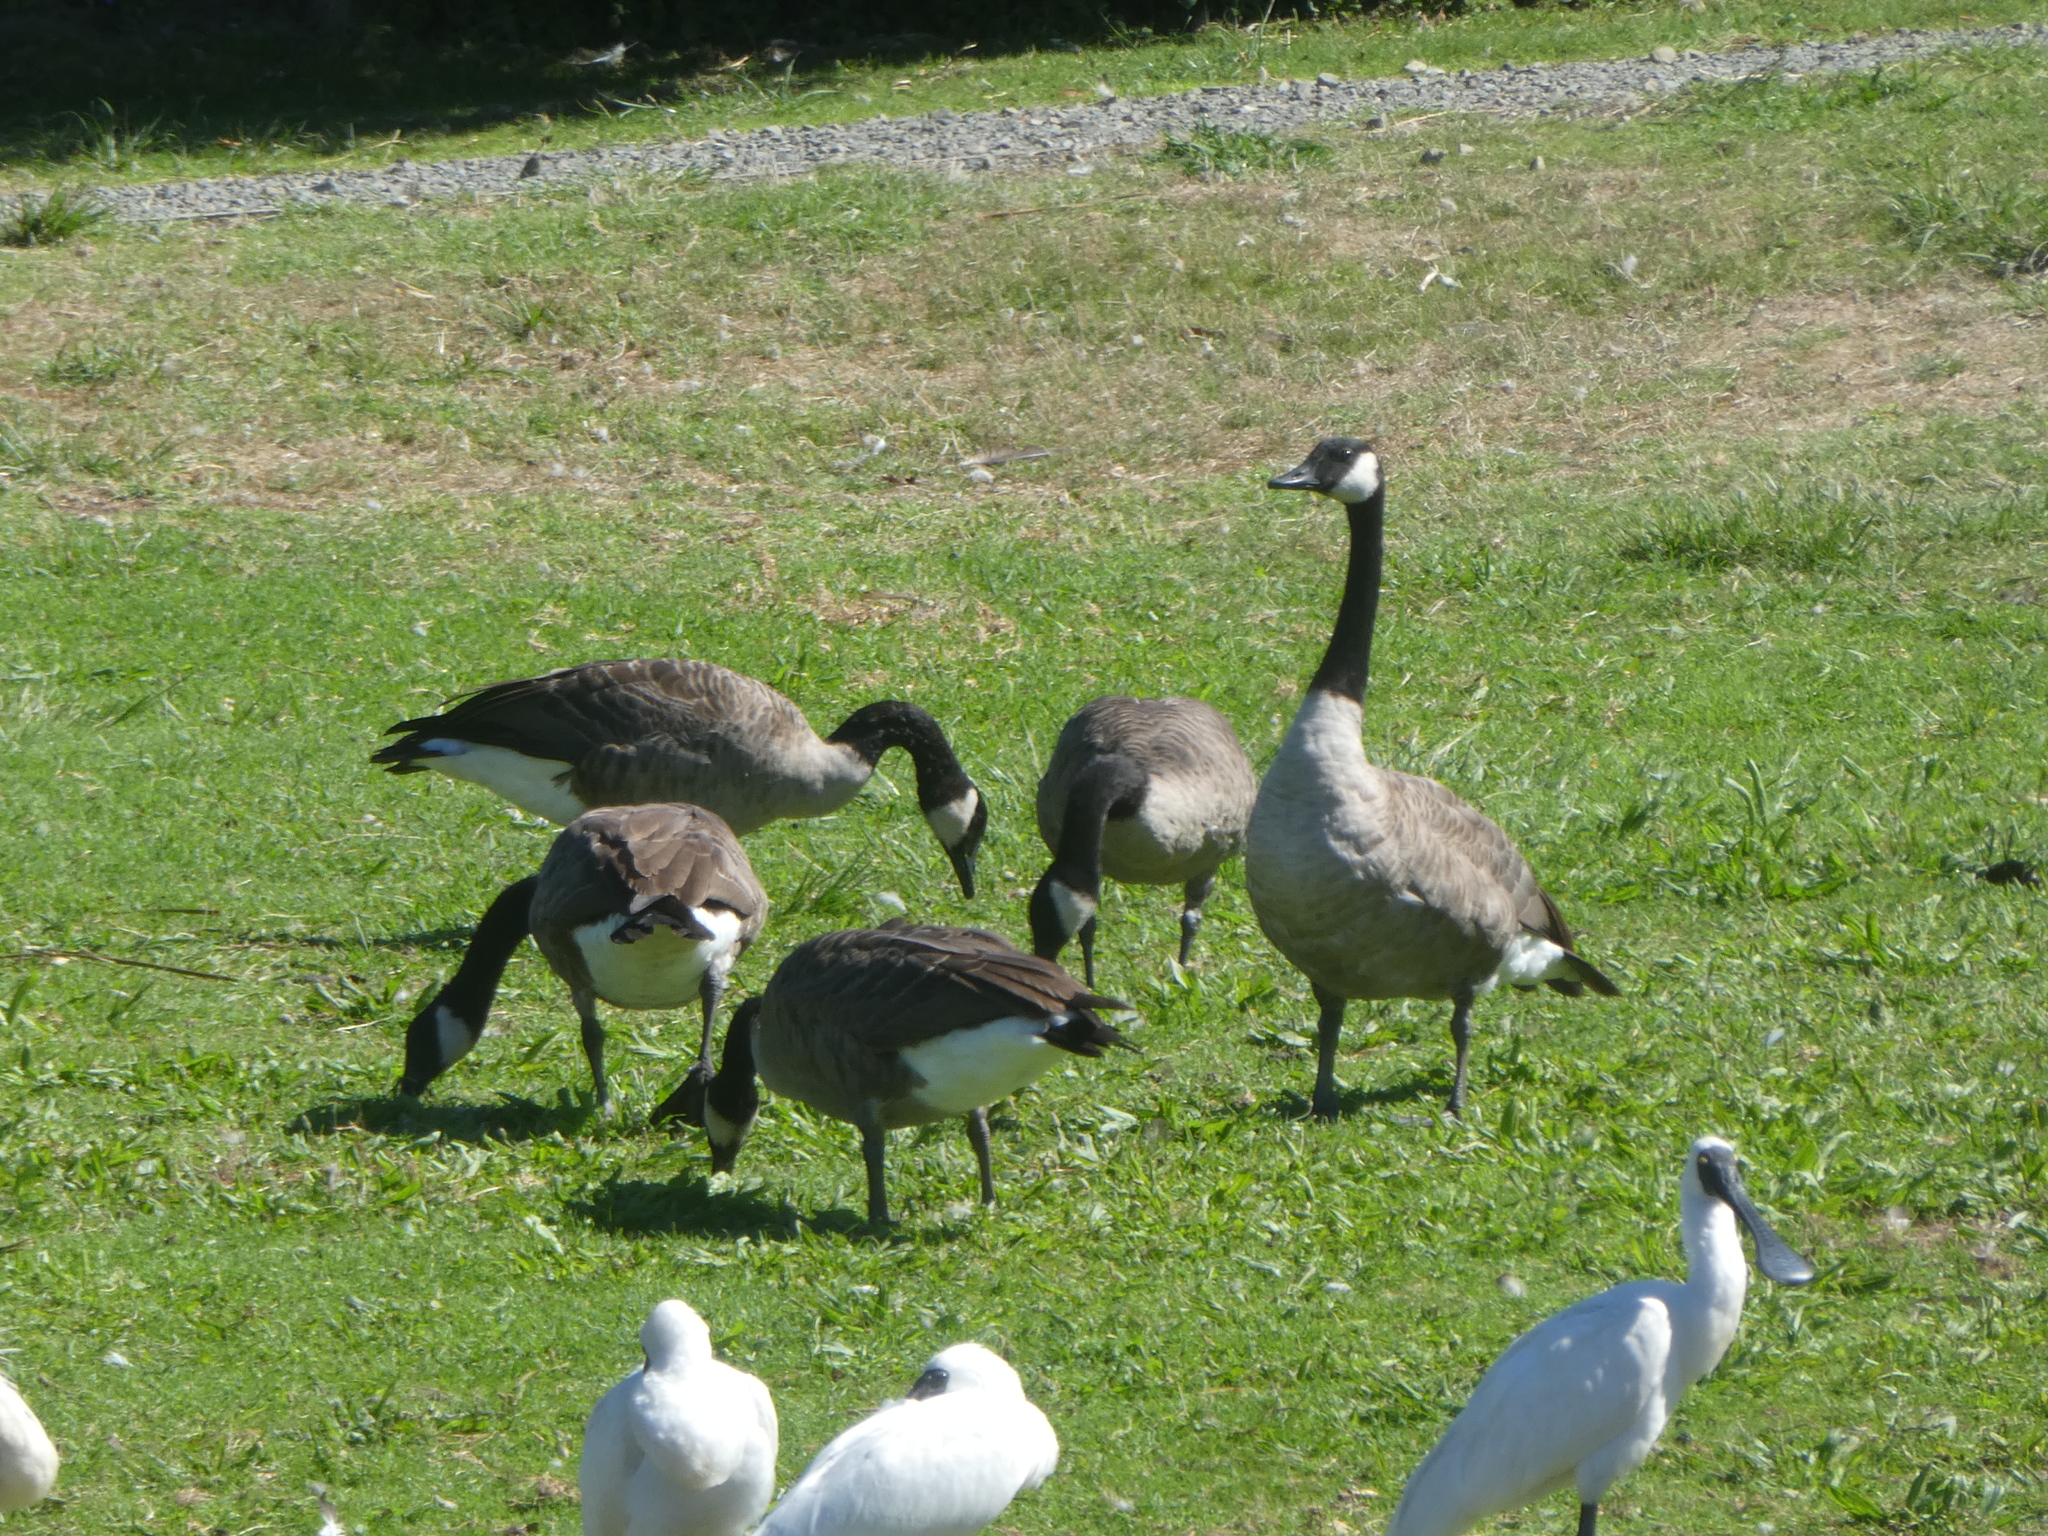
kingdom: Animalia
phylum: Chordata
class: Aves
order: Anseriformes
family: Anatidae
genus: Branta
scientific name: Branta canadensis
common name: Canada goose
